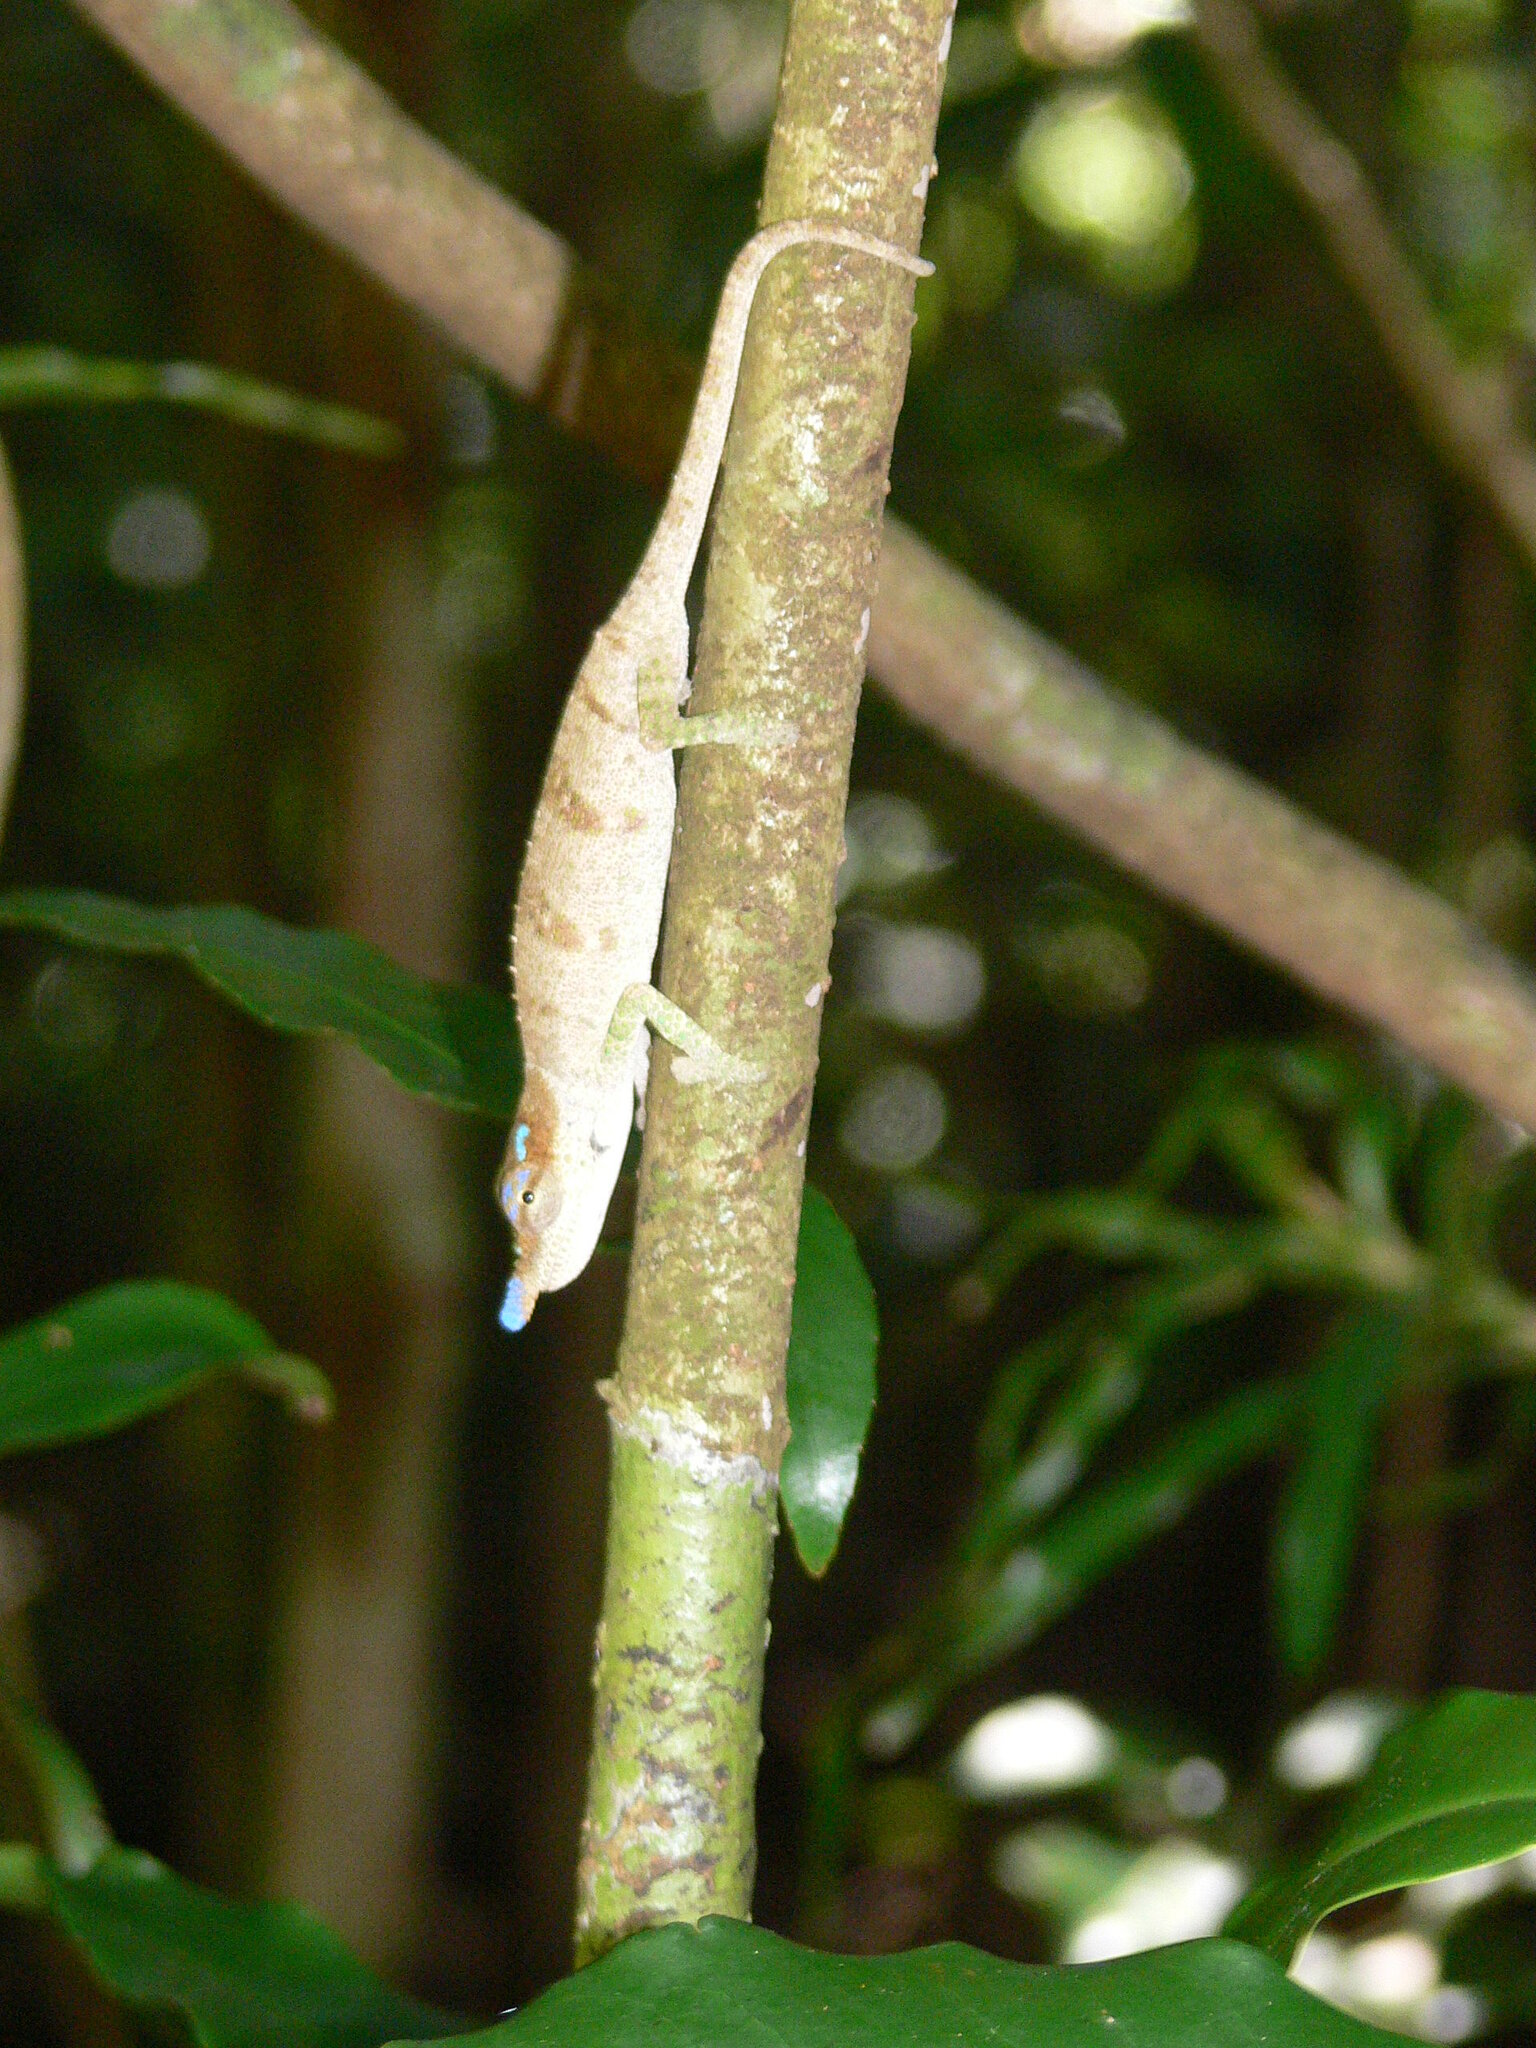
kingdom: Animalia
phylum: Chordata
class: Squamata
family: Chamaeleonidae
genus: Calumma
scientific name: Calumma linotum
